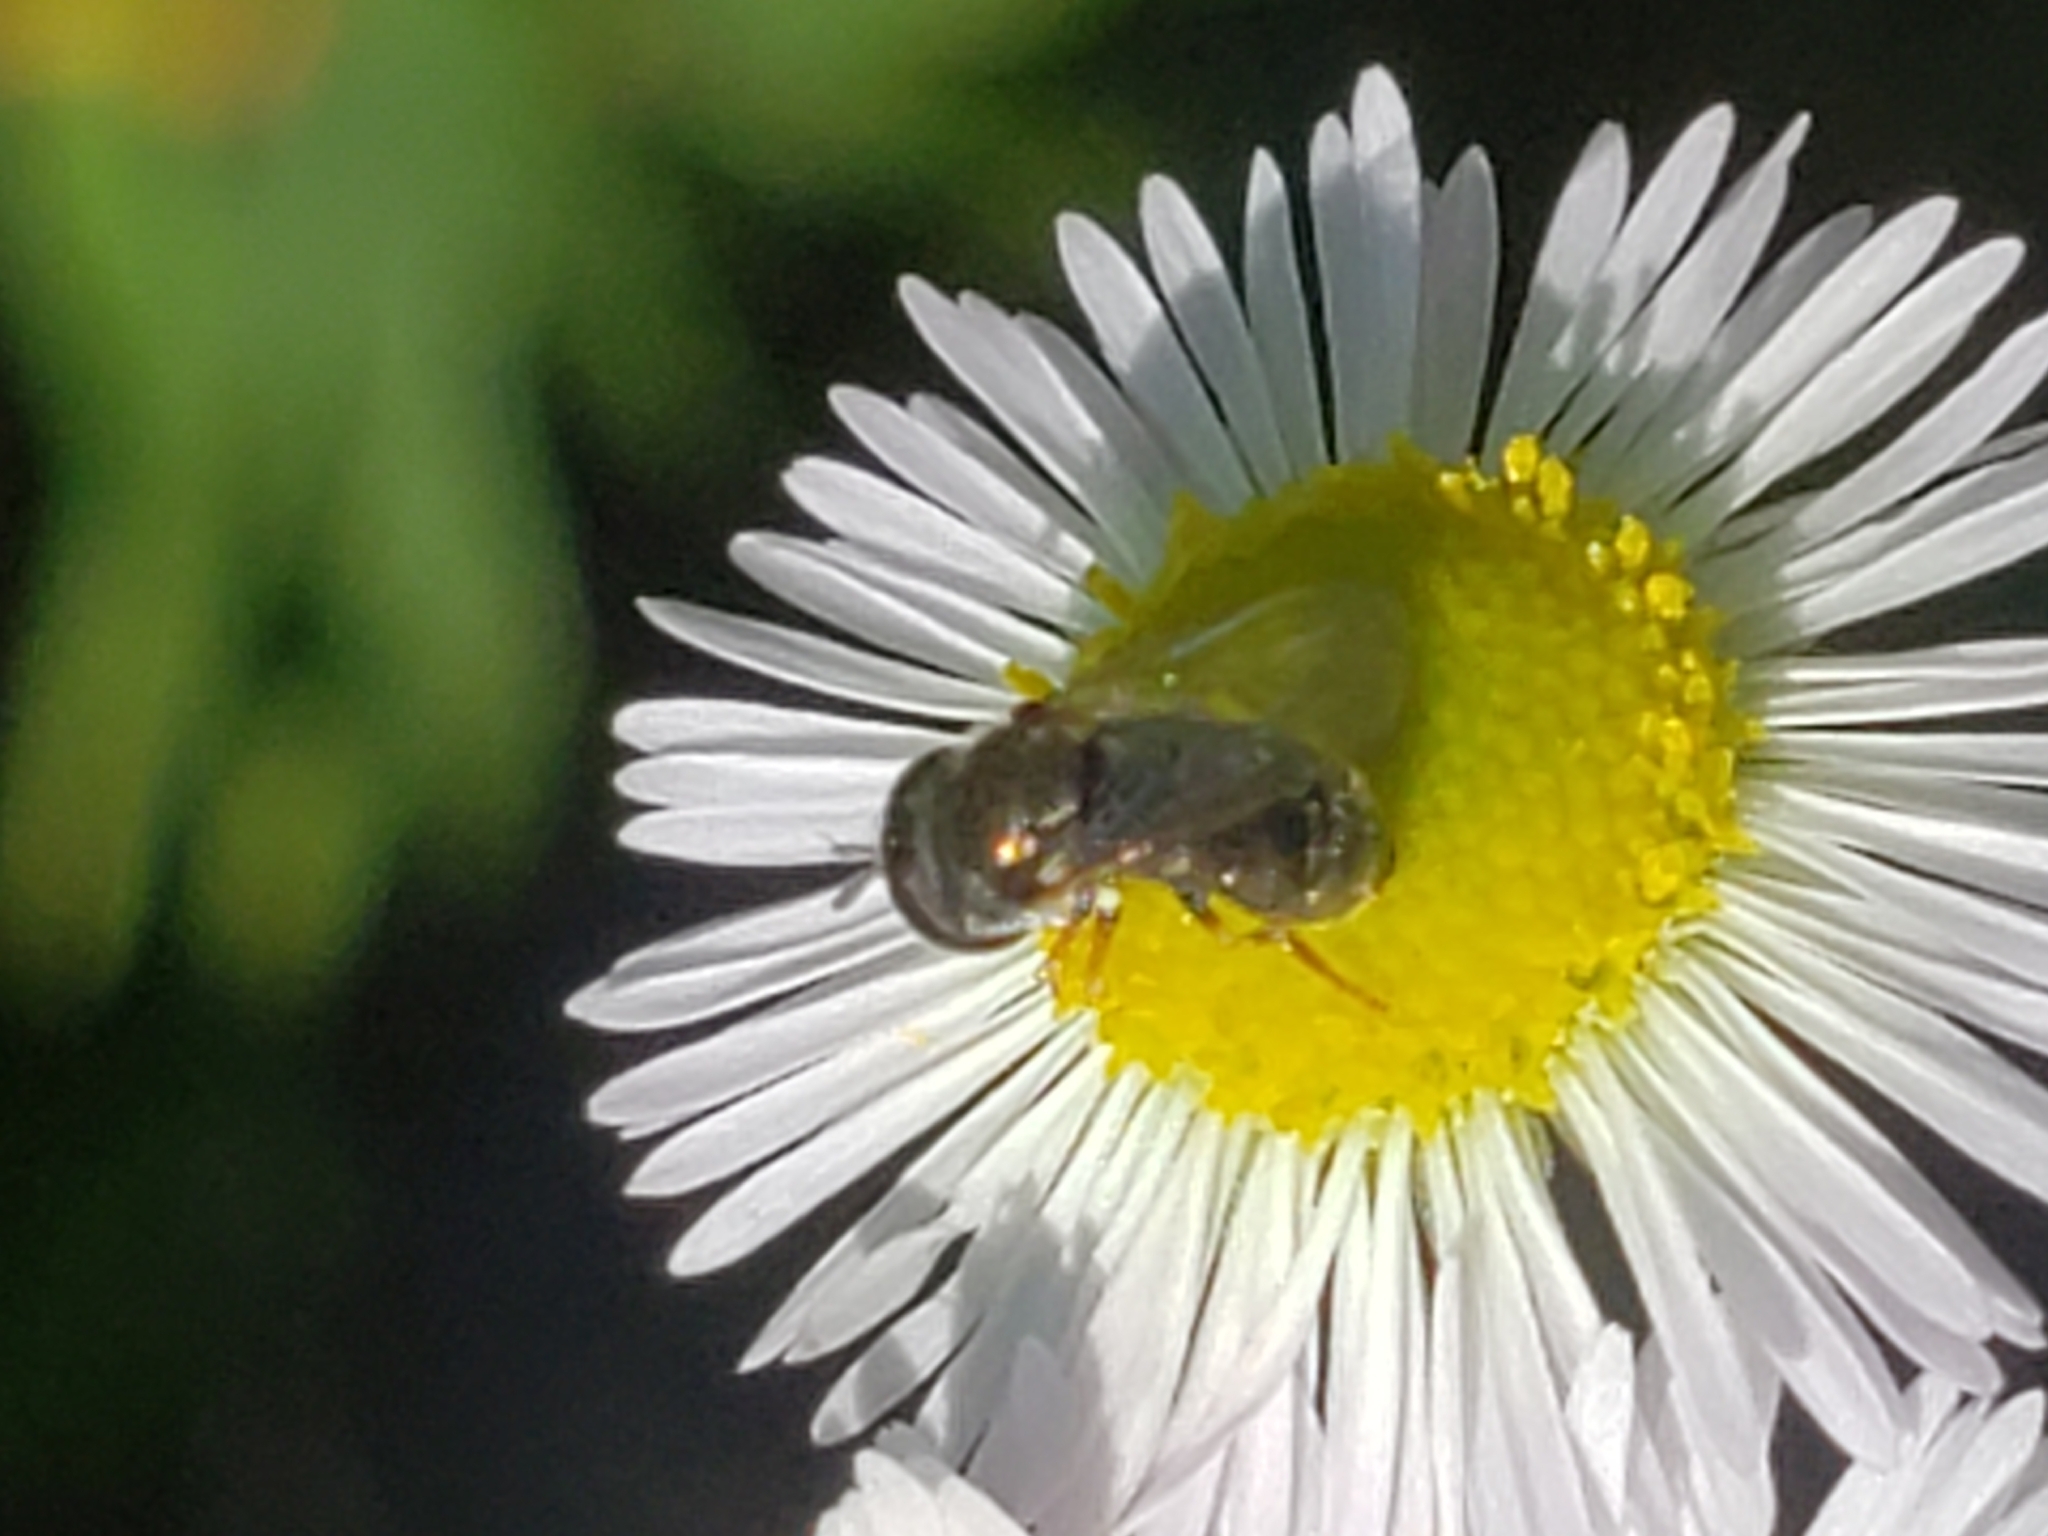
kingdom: Animalia
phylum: Arthropoda
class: Insecta
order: Diptera
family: Syrphidae
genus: Paragus
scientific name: Paragus haemorrhous
